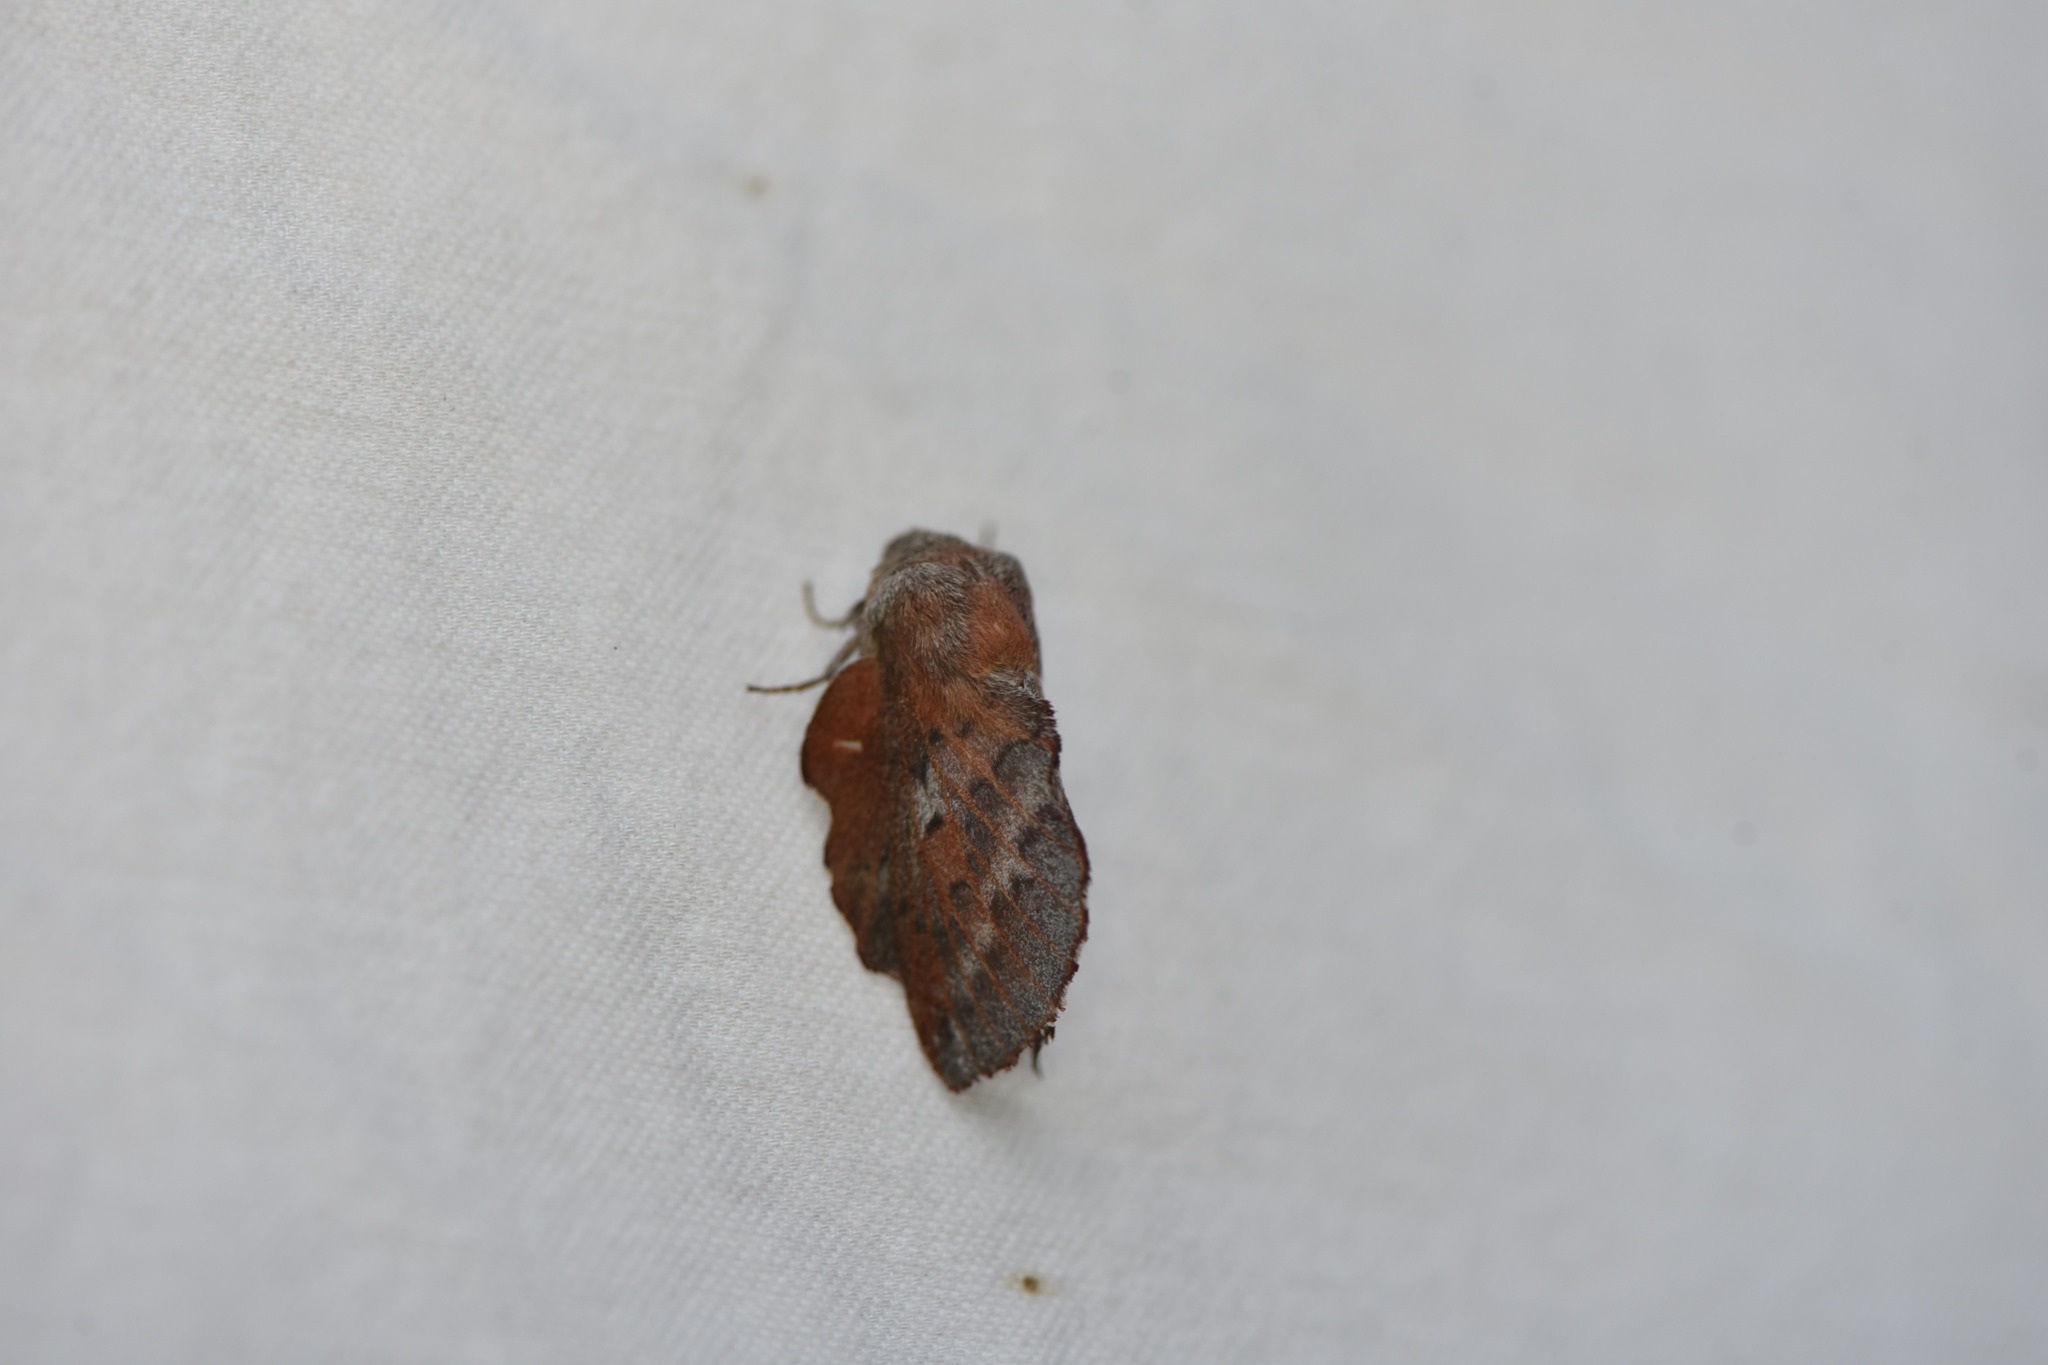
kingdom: Animalia
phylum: Arthropoda
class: Insecta
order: Lepidoptera
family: Lasiocampidae
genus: Phyllodesma
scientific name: Phyllodesma americana
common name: American lappet moth
